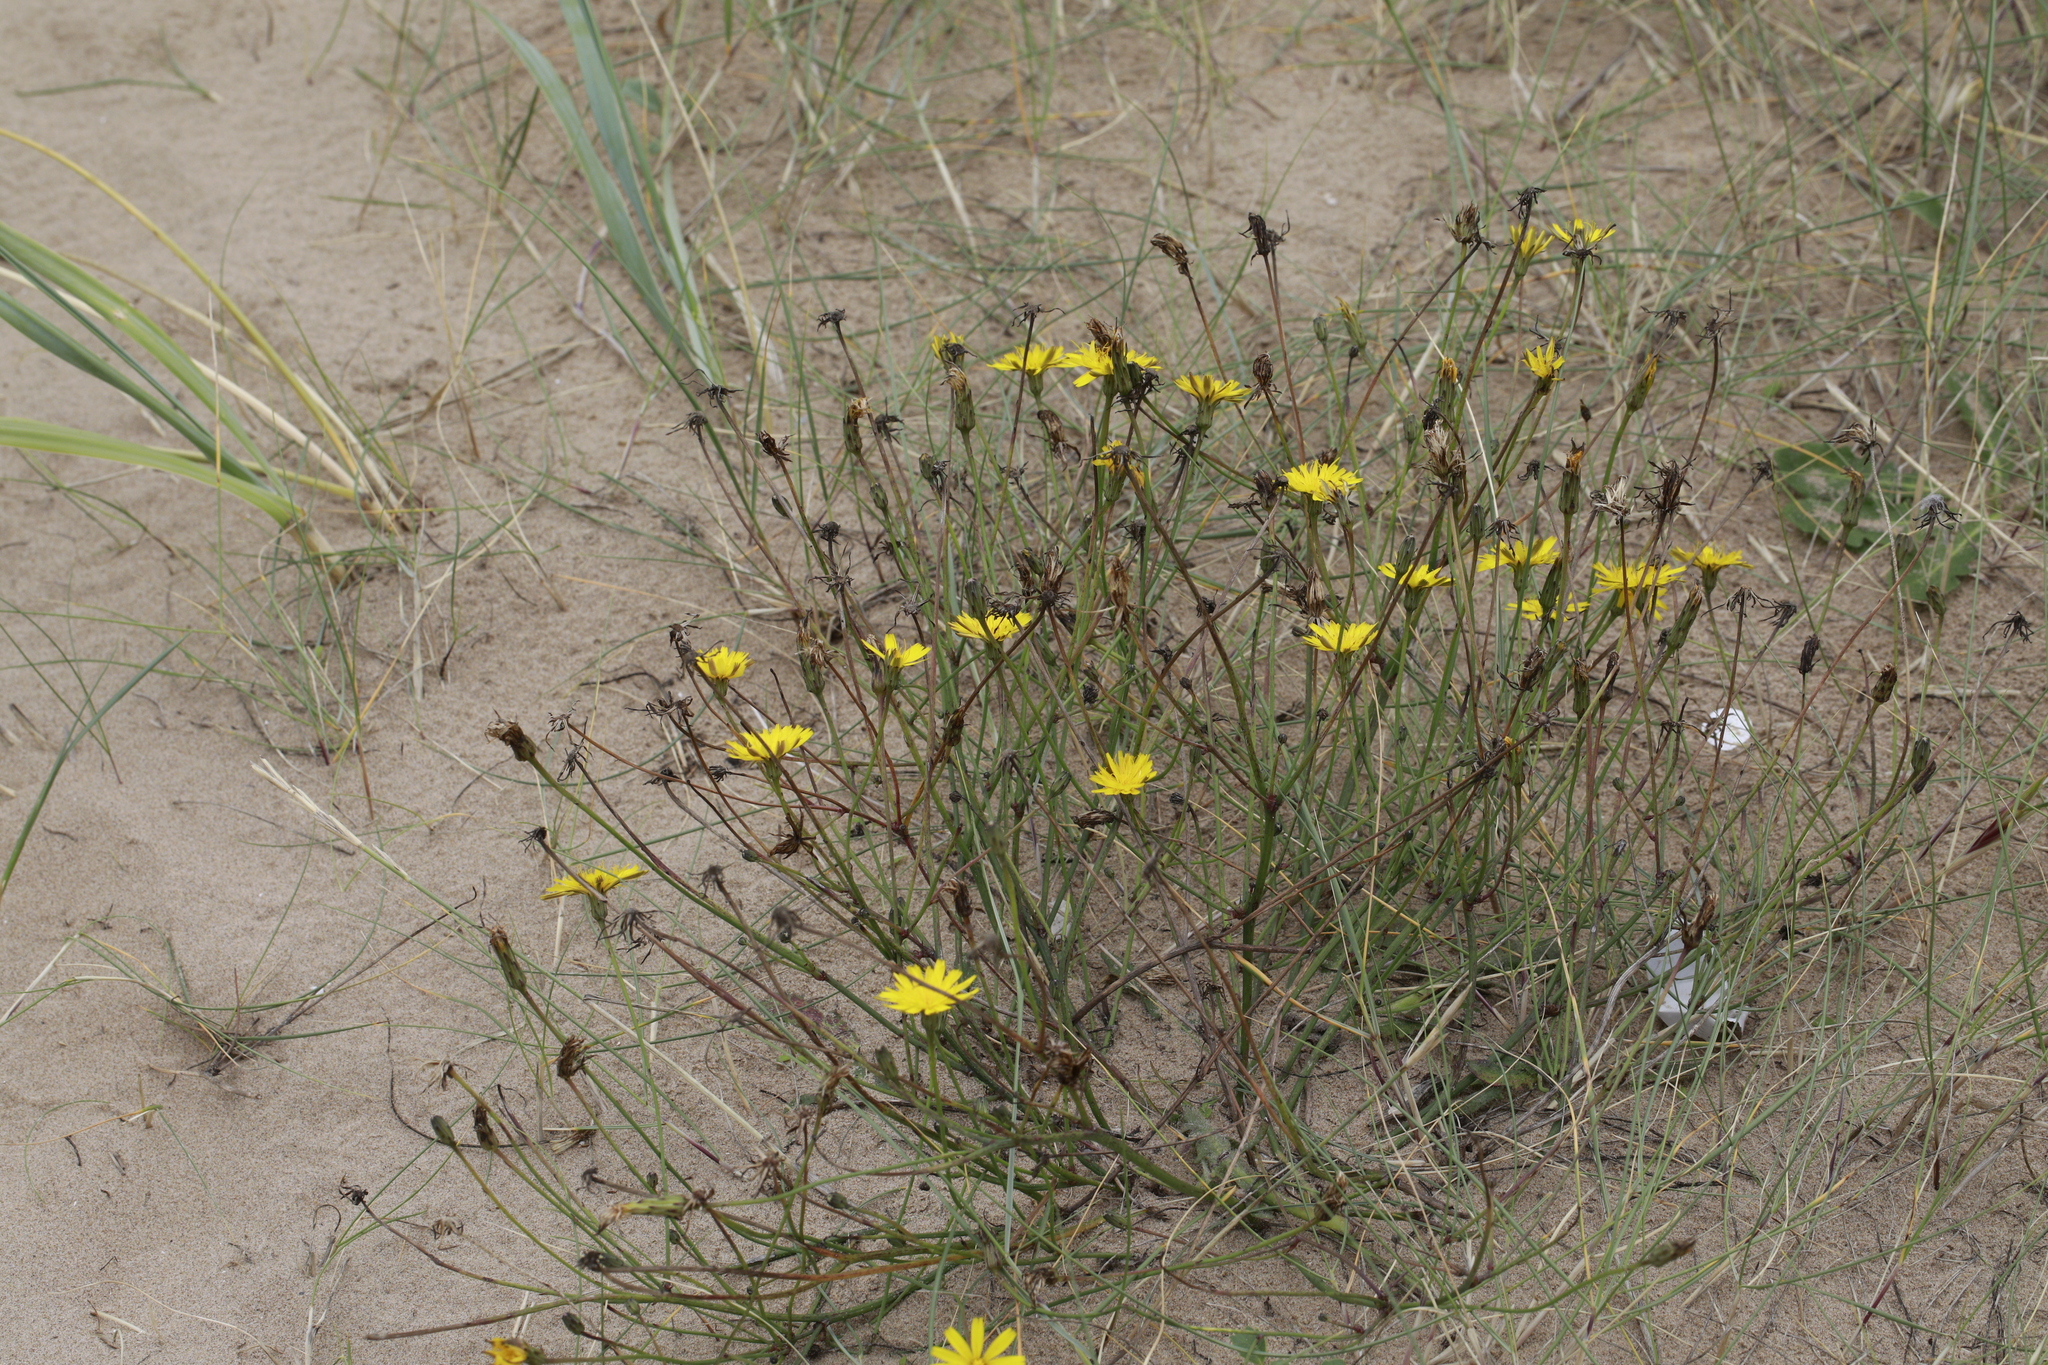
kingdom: Plantae
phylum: Tracheophyta
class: Magnoliopsida
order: Asterales
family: Asteraceae
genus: Hypochaeris
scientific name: Hypochaeris radicata
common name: Flatweed
